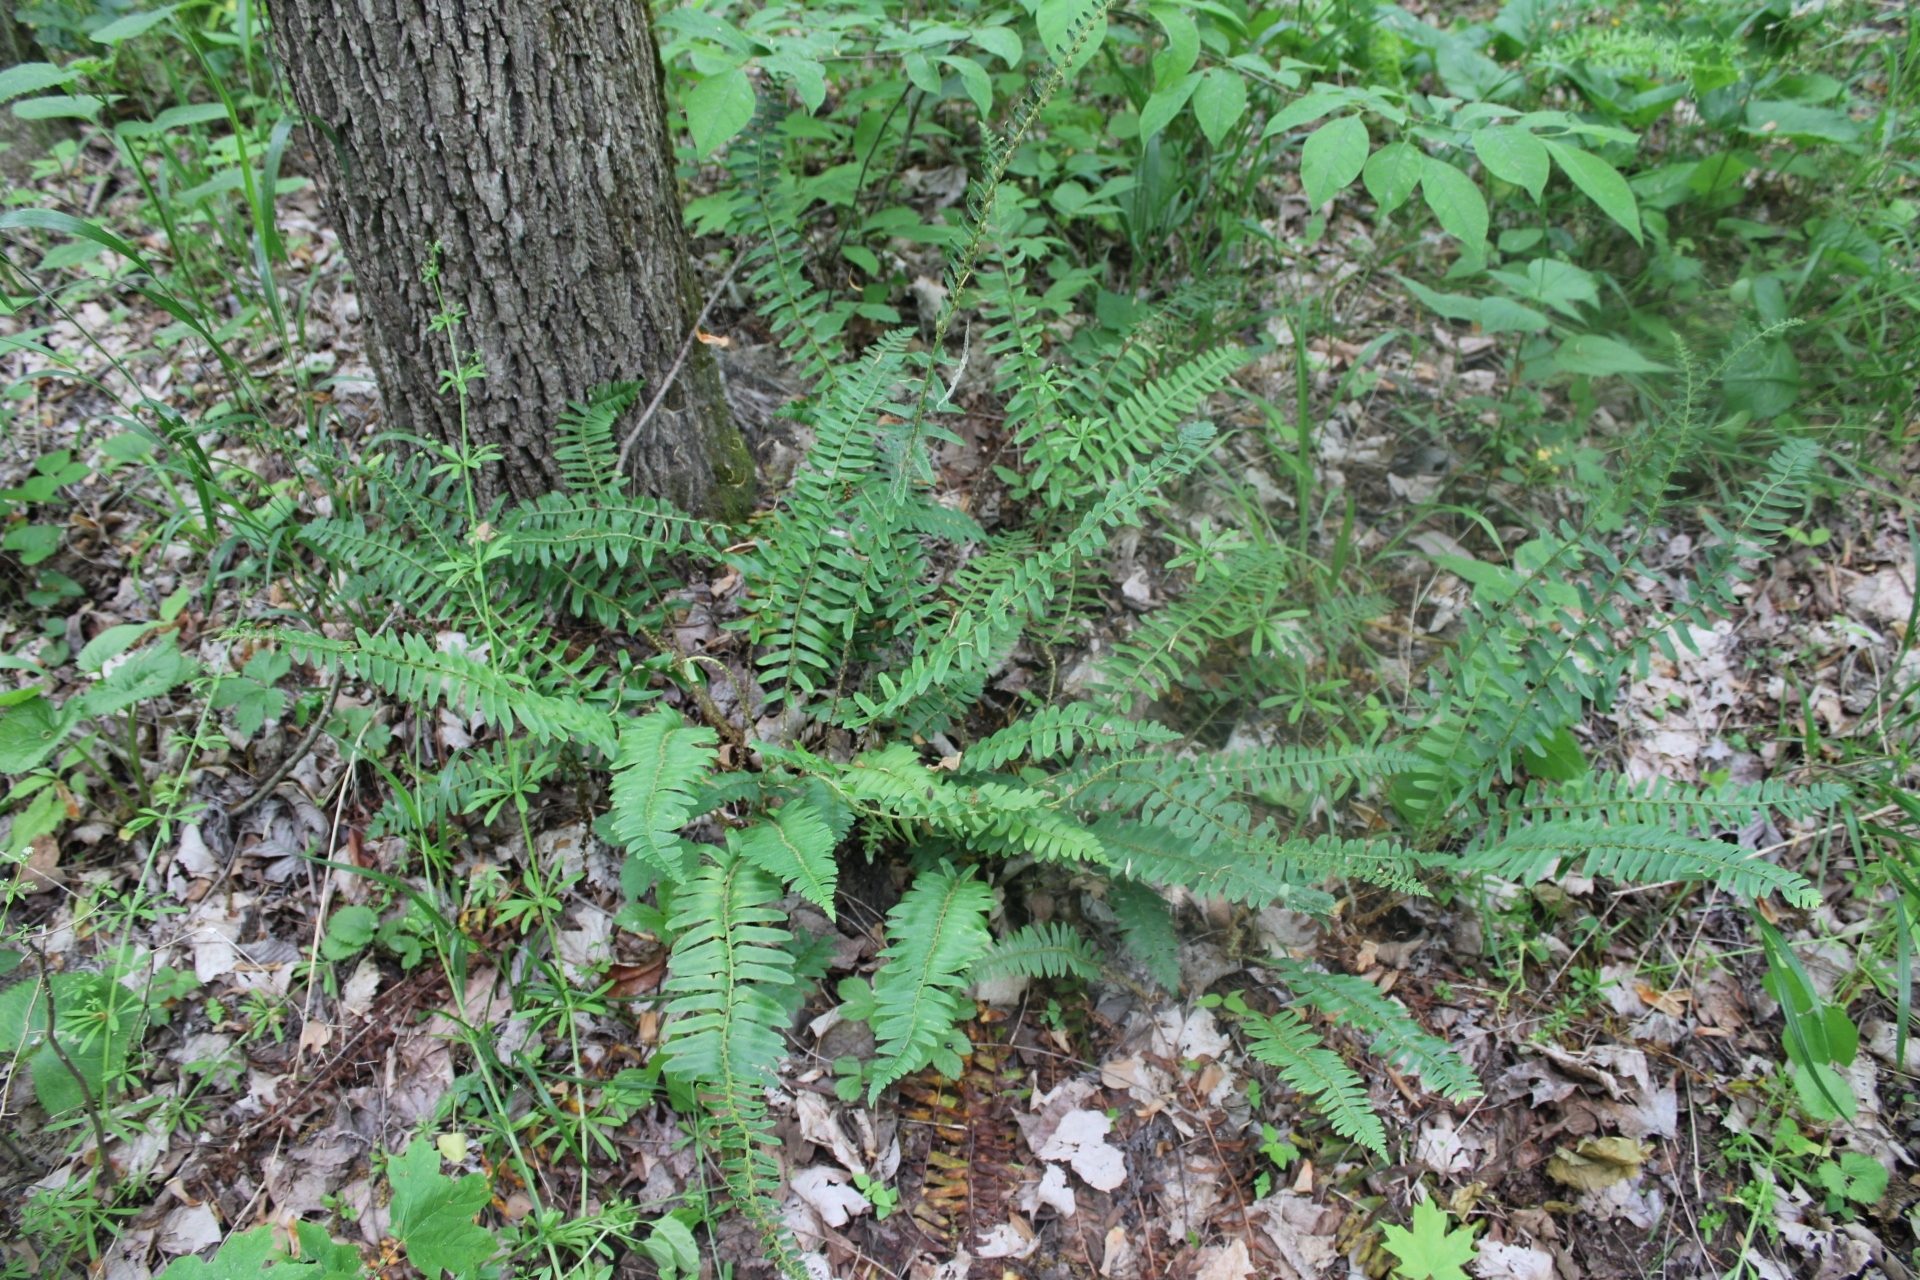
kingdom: Plantae
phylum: Tracheophyta
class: Polypodiopsida
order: Polypodiales
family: Dryopteridaceae
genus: Polystichum
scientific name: Polystichum acrostichoides
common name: Christmas fern
